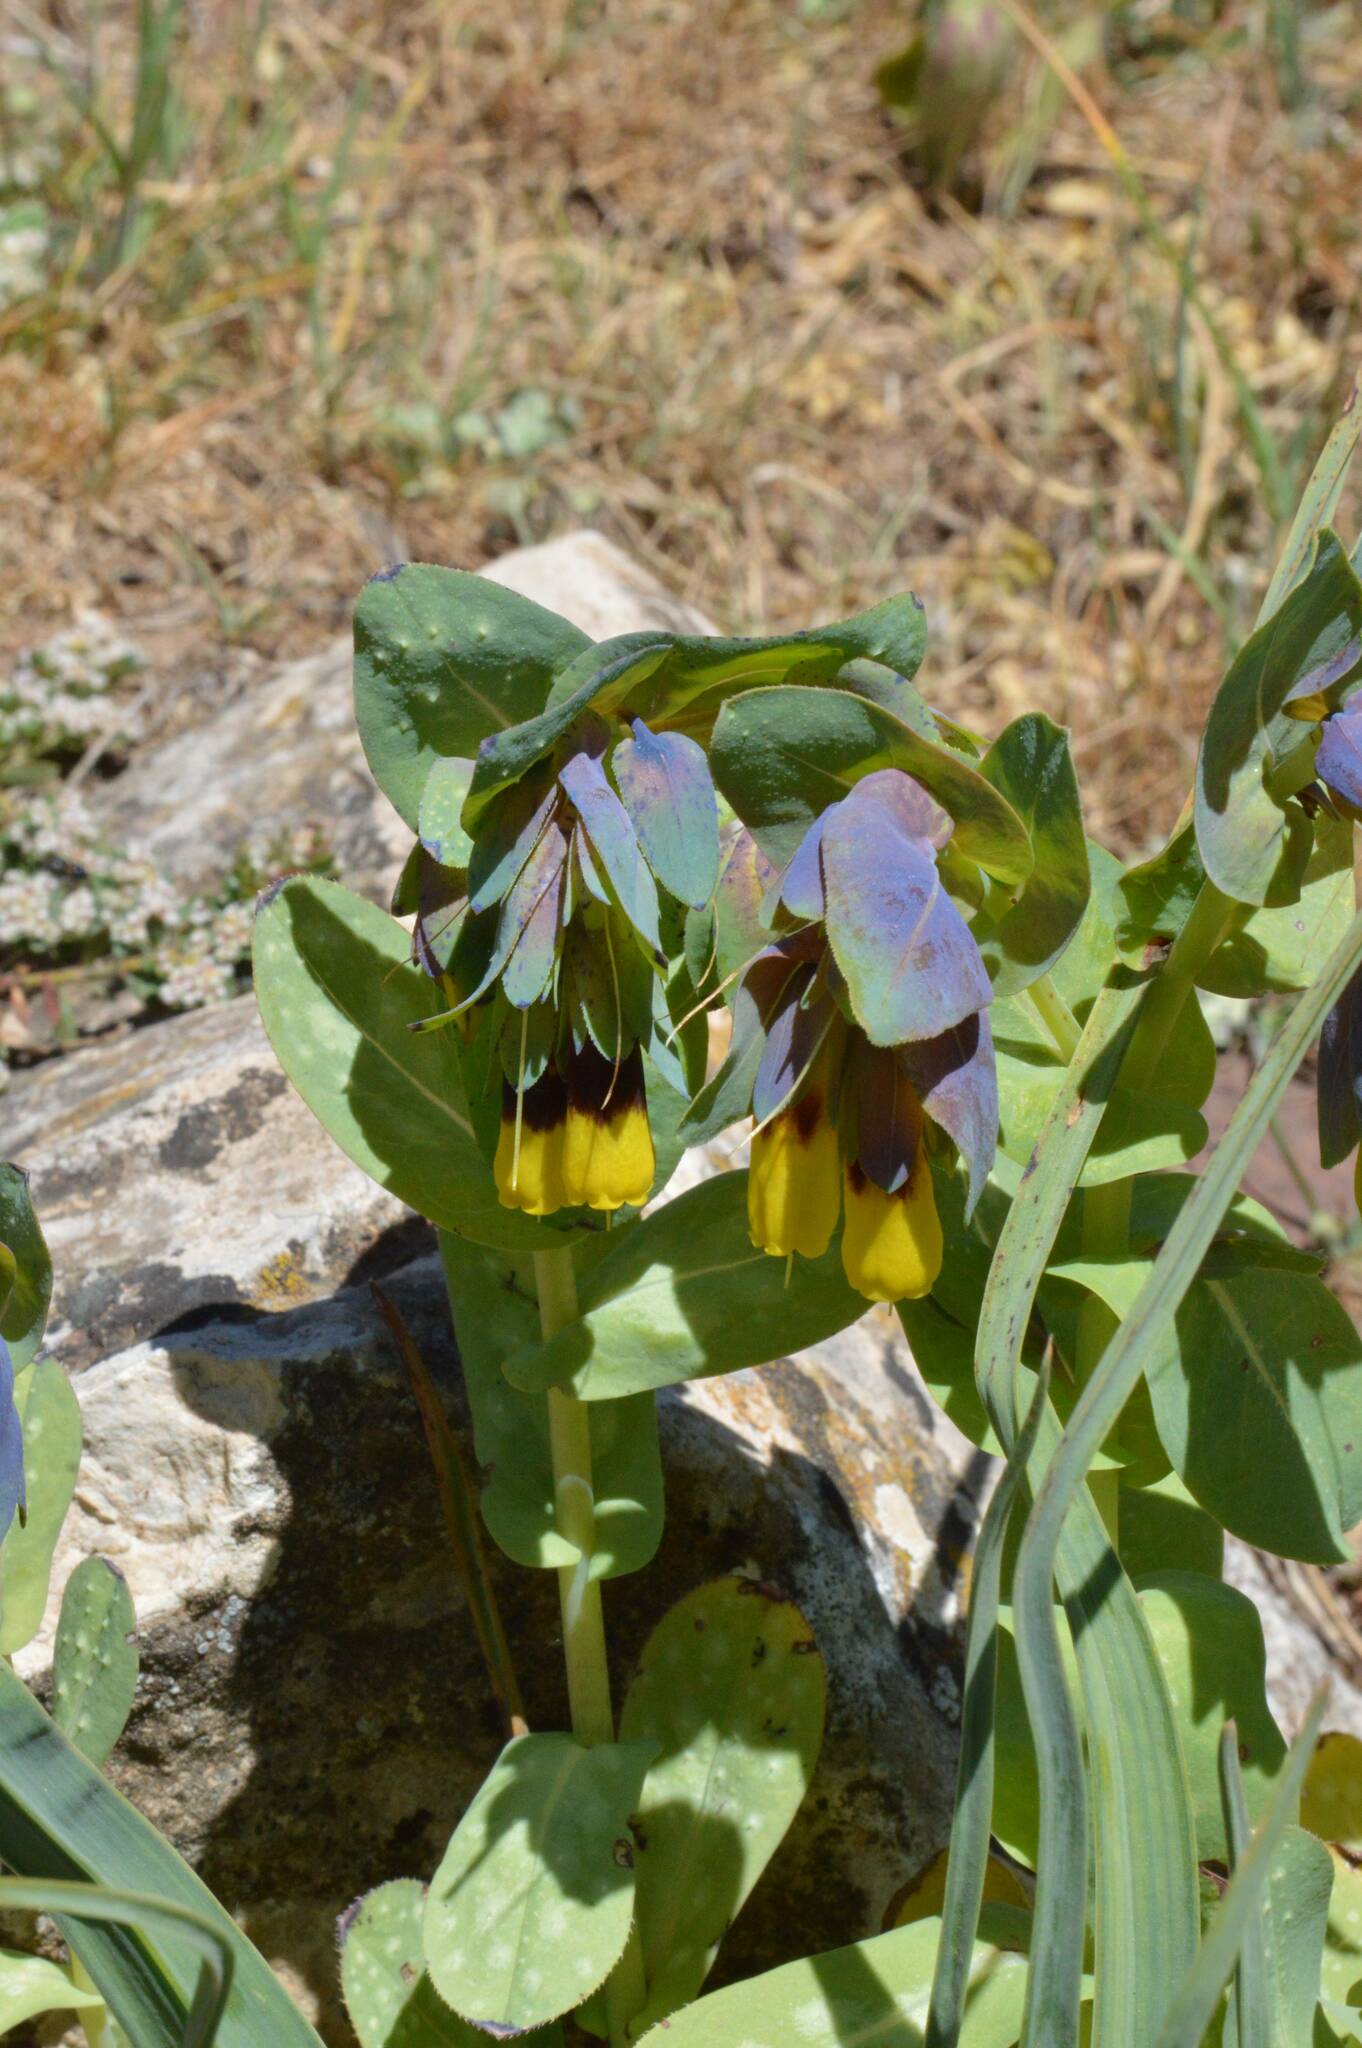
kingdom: Plantae
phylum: Tracheophyta
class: Magnoliopsida
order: Boraginales
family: Boraginaceae
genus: Cerinthe
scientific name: Cerinthe major
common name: Greater honeywort
